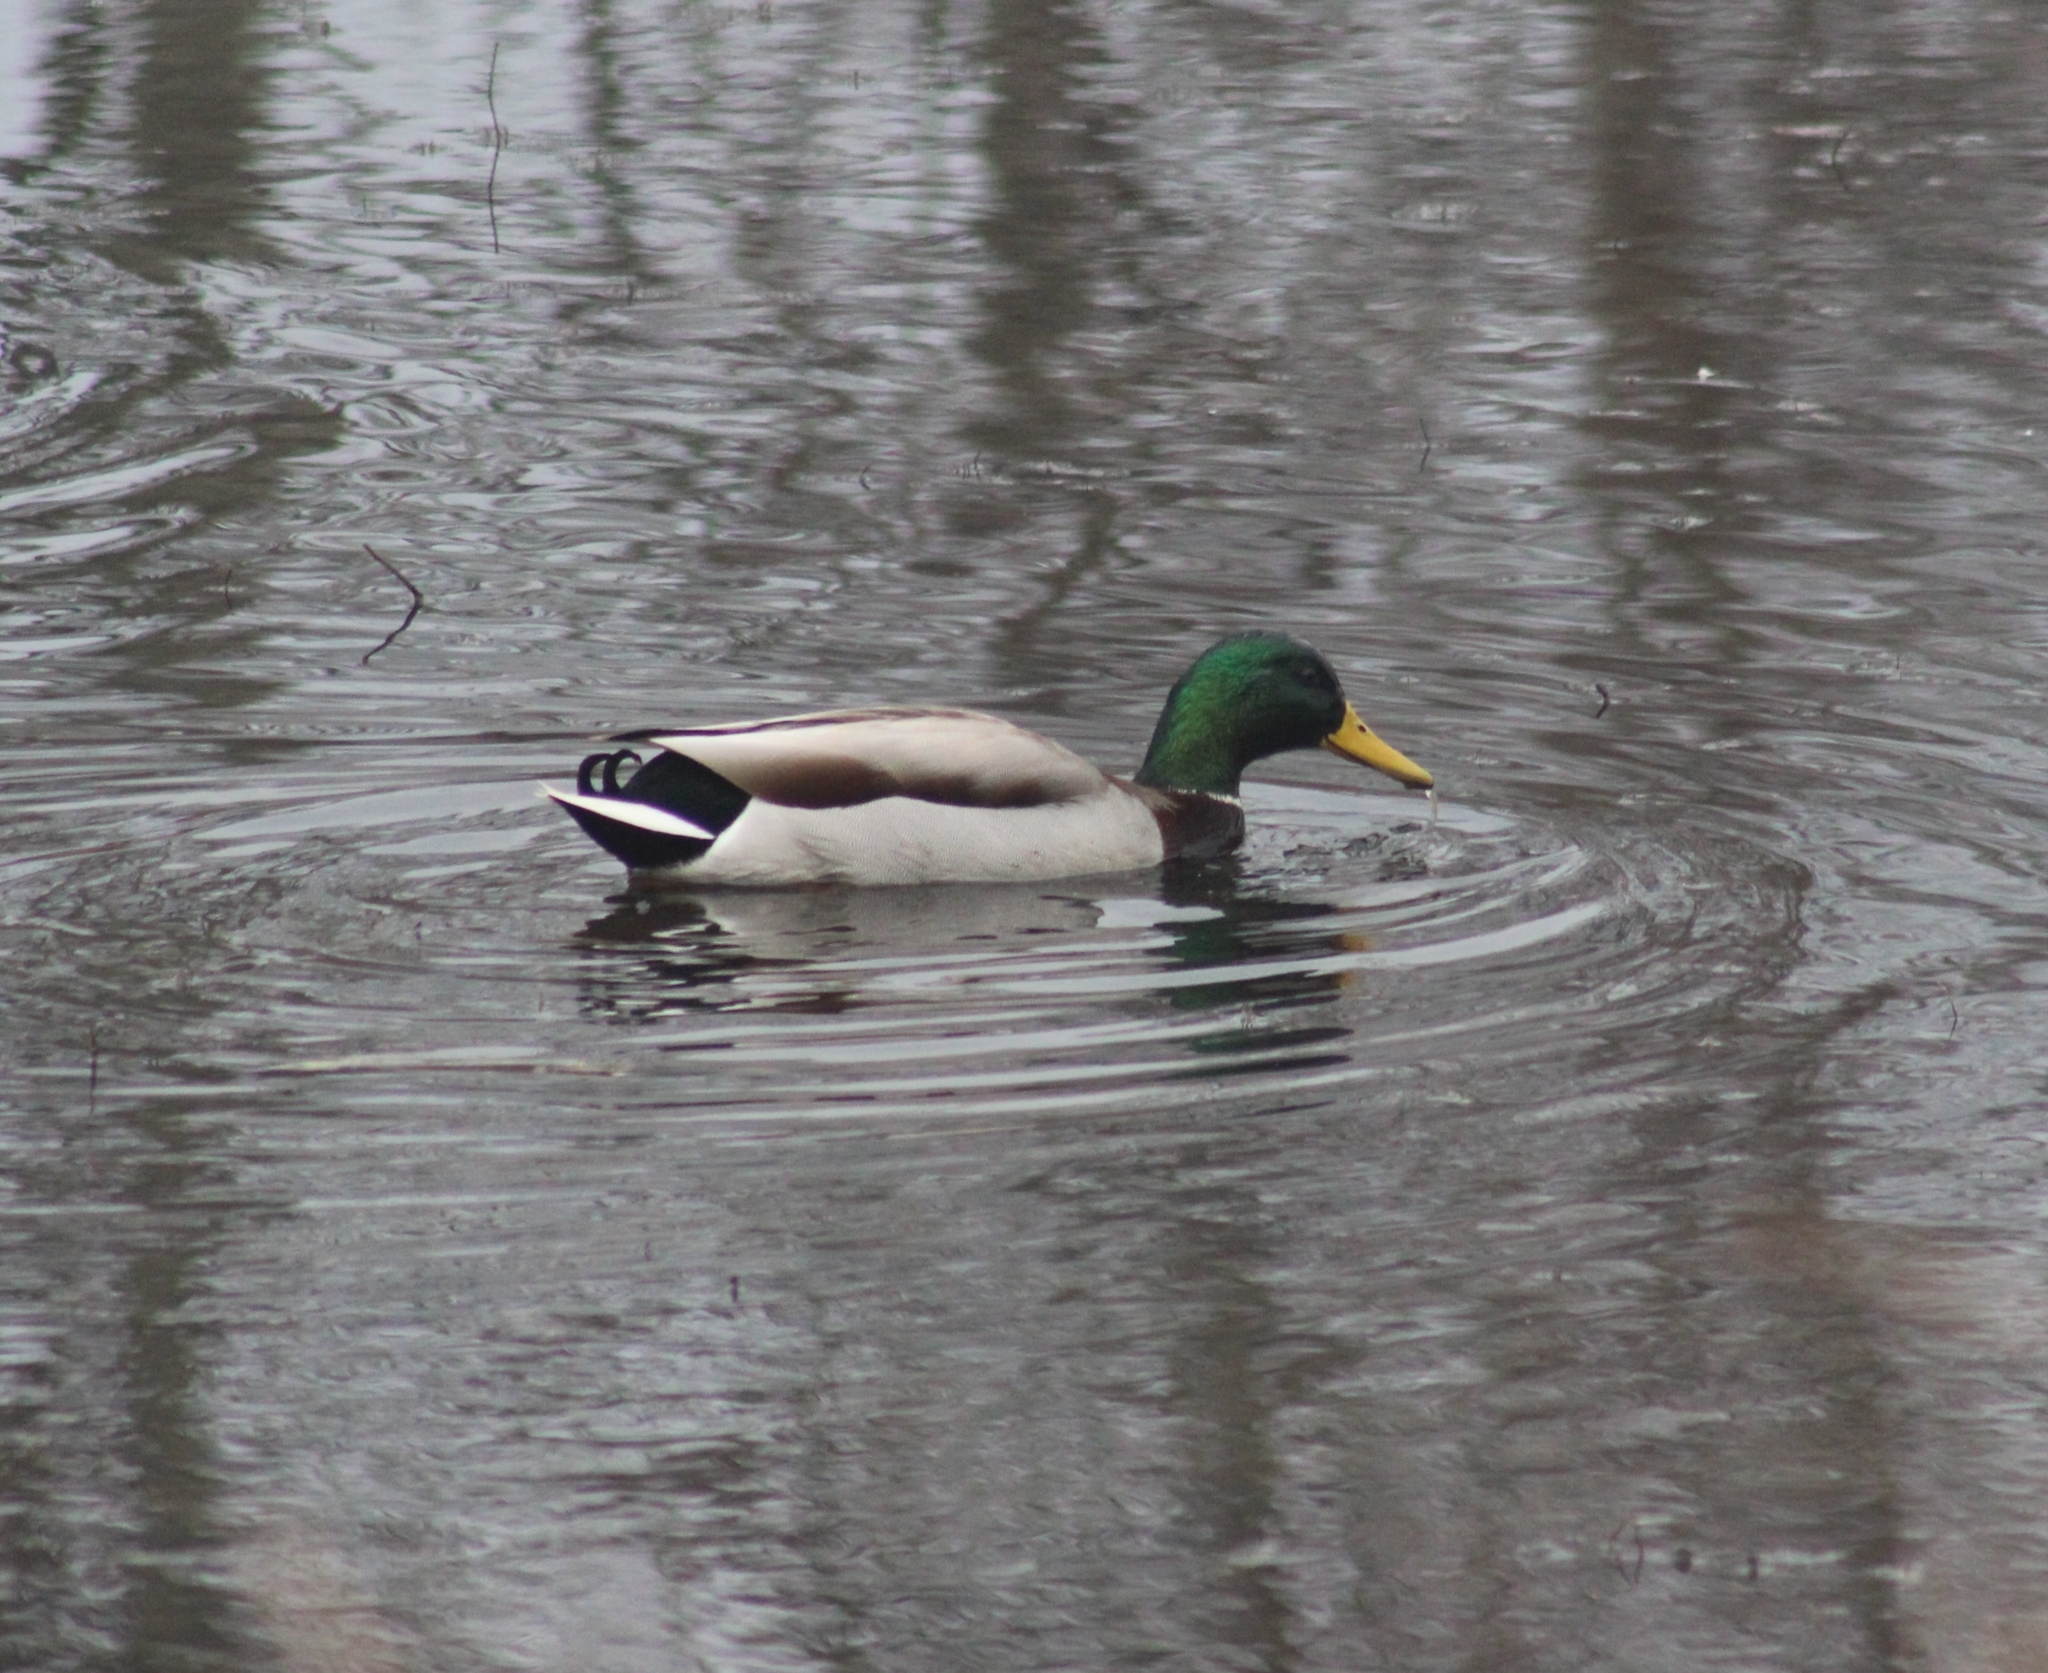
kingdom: Animalia
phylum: Chordata
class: Aves
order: Anseriformes
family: Anatidae
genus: Anas
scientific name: Anas platyrhynchos
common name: Mallard
